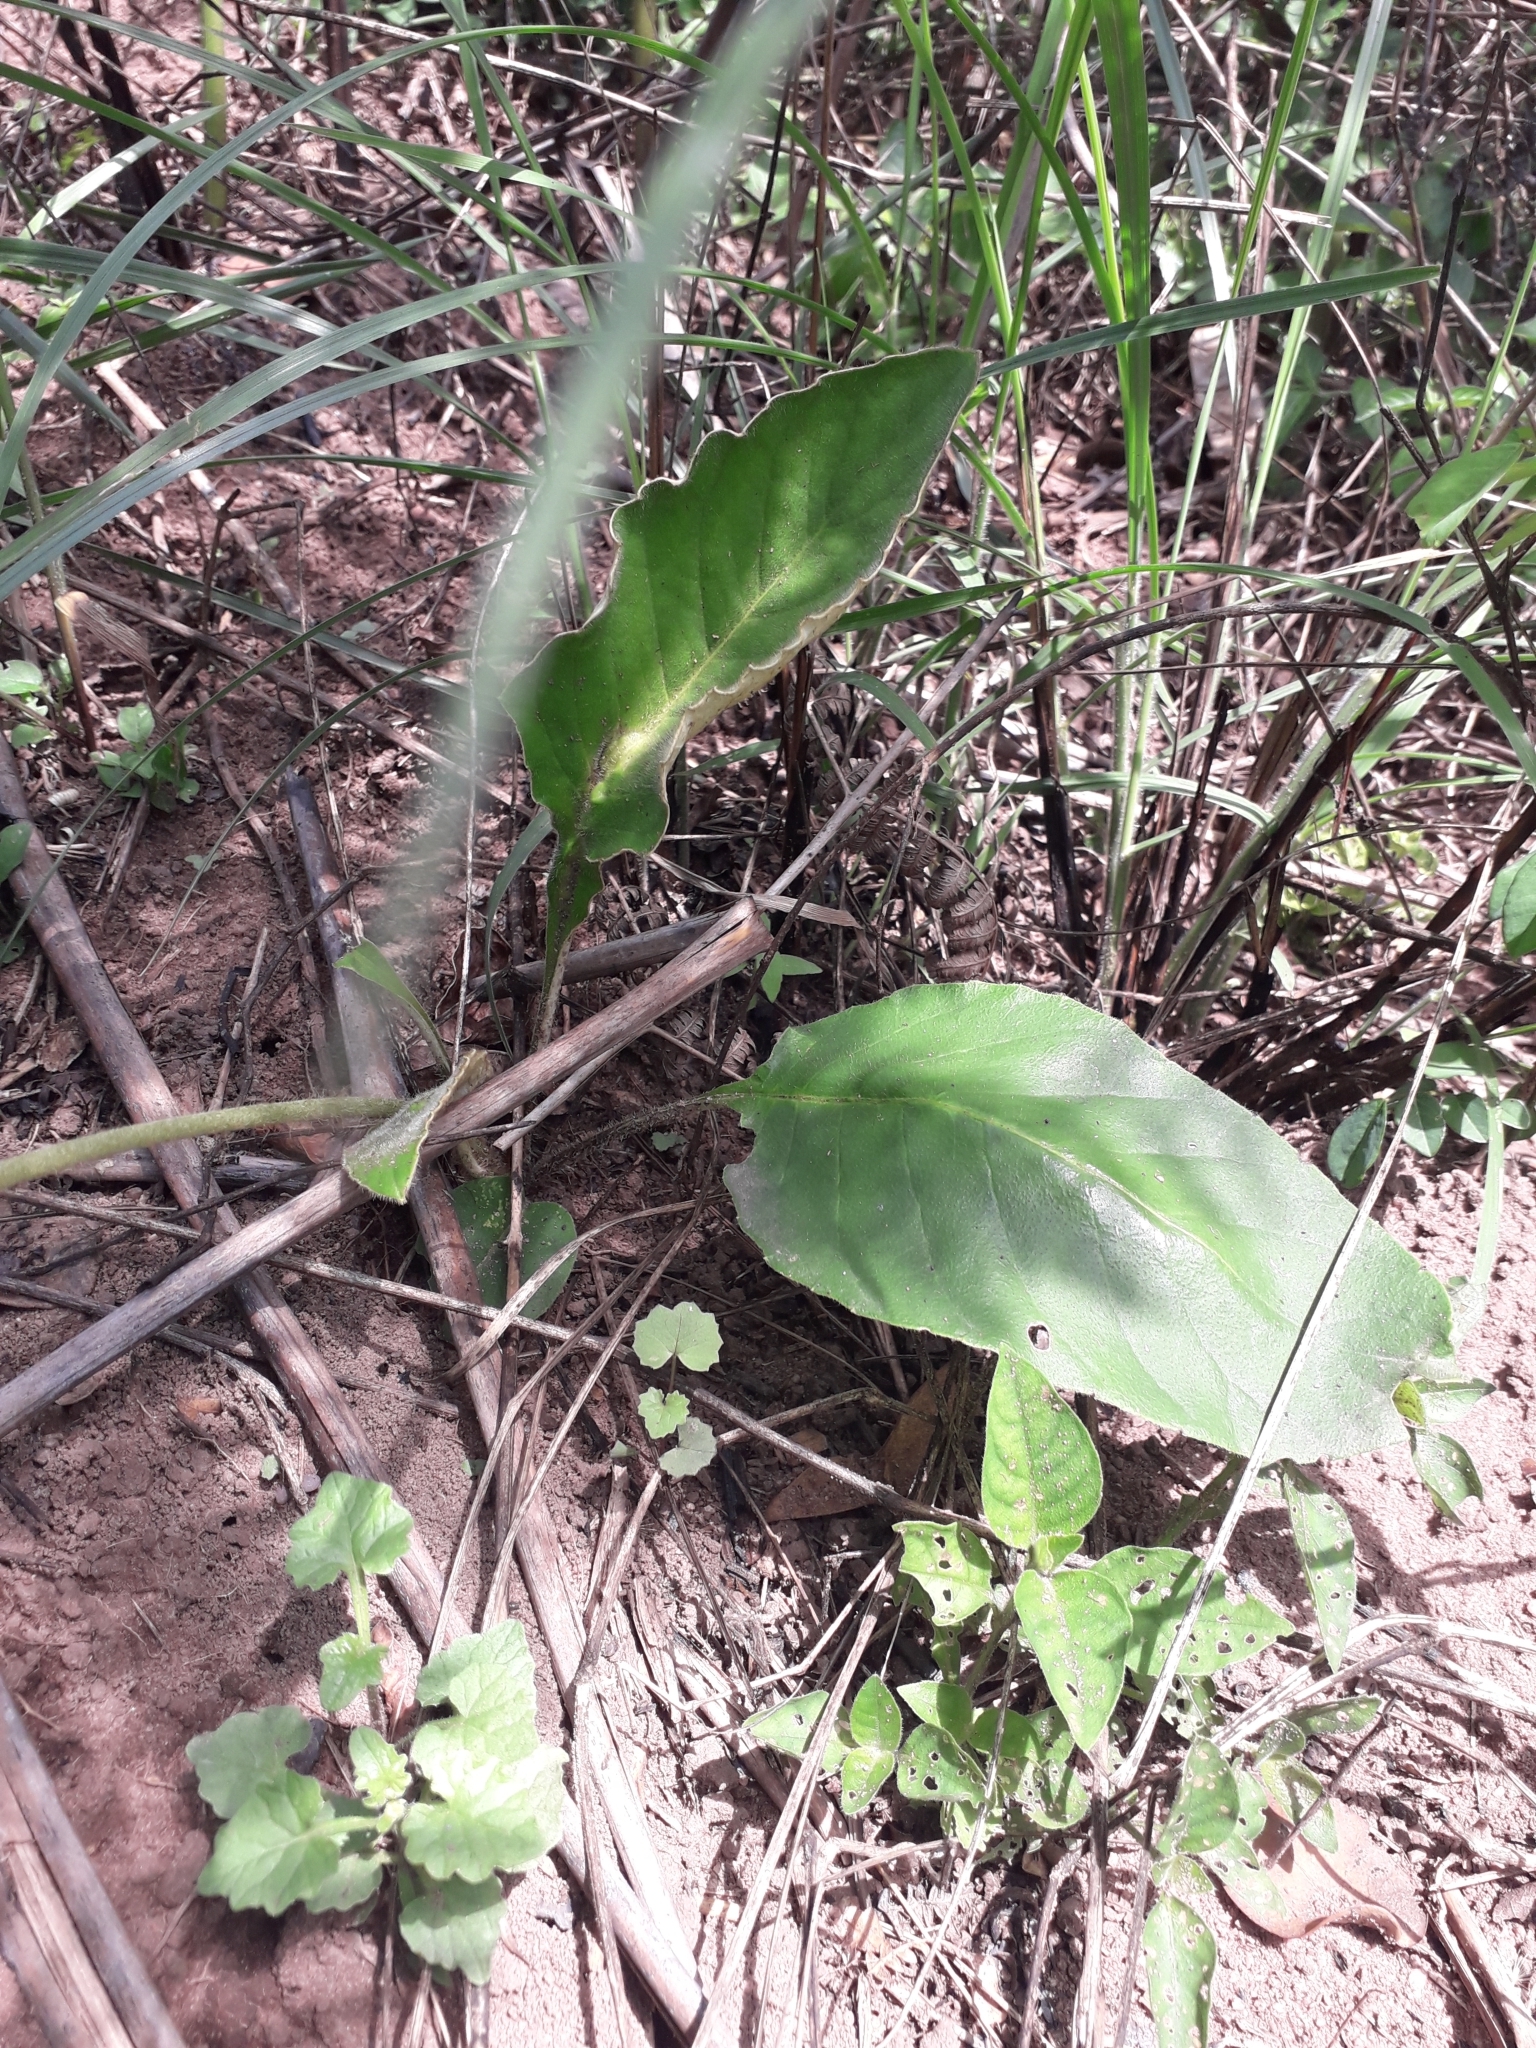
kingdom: Plantae
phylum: Tracheophyta
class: Magnoliopsida
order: Asterales
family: Asteraceae
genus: Gerbera
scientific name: Gerbera ambigua
